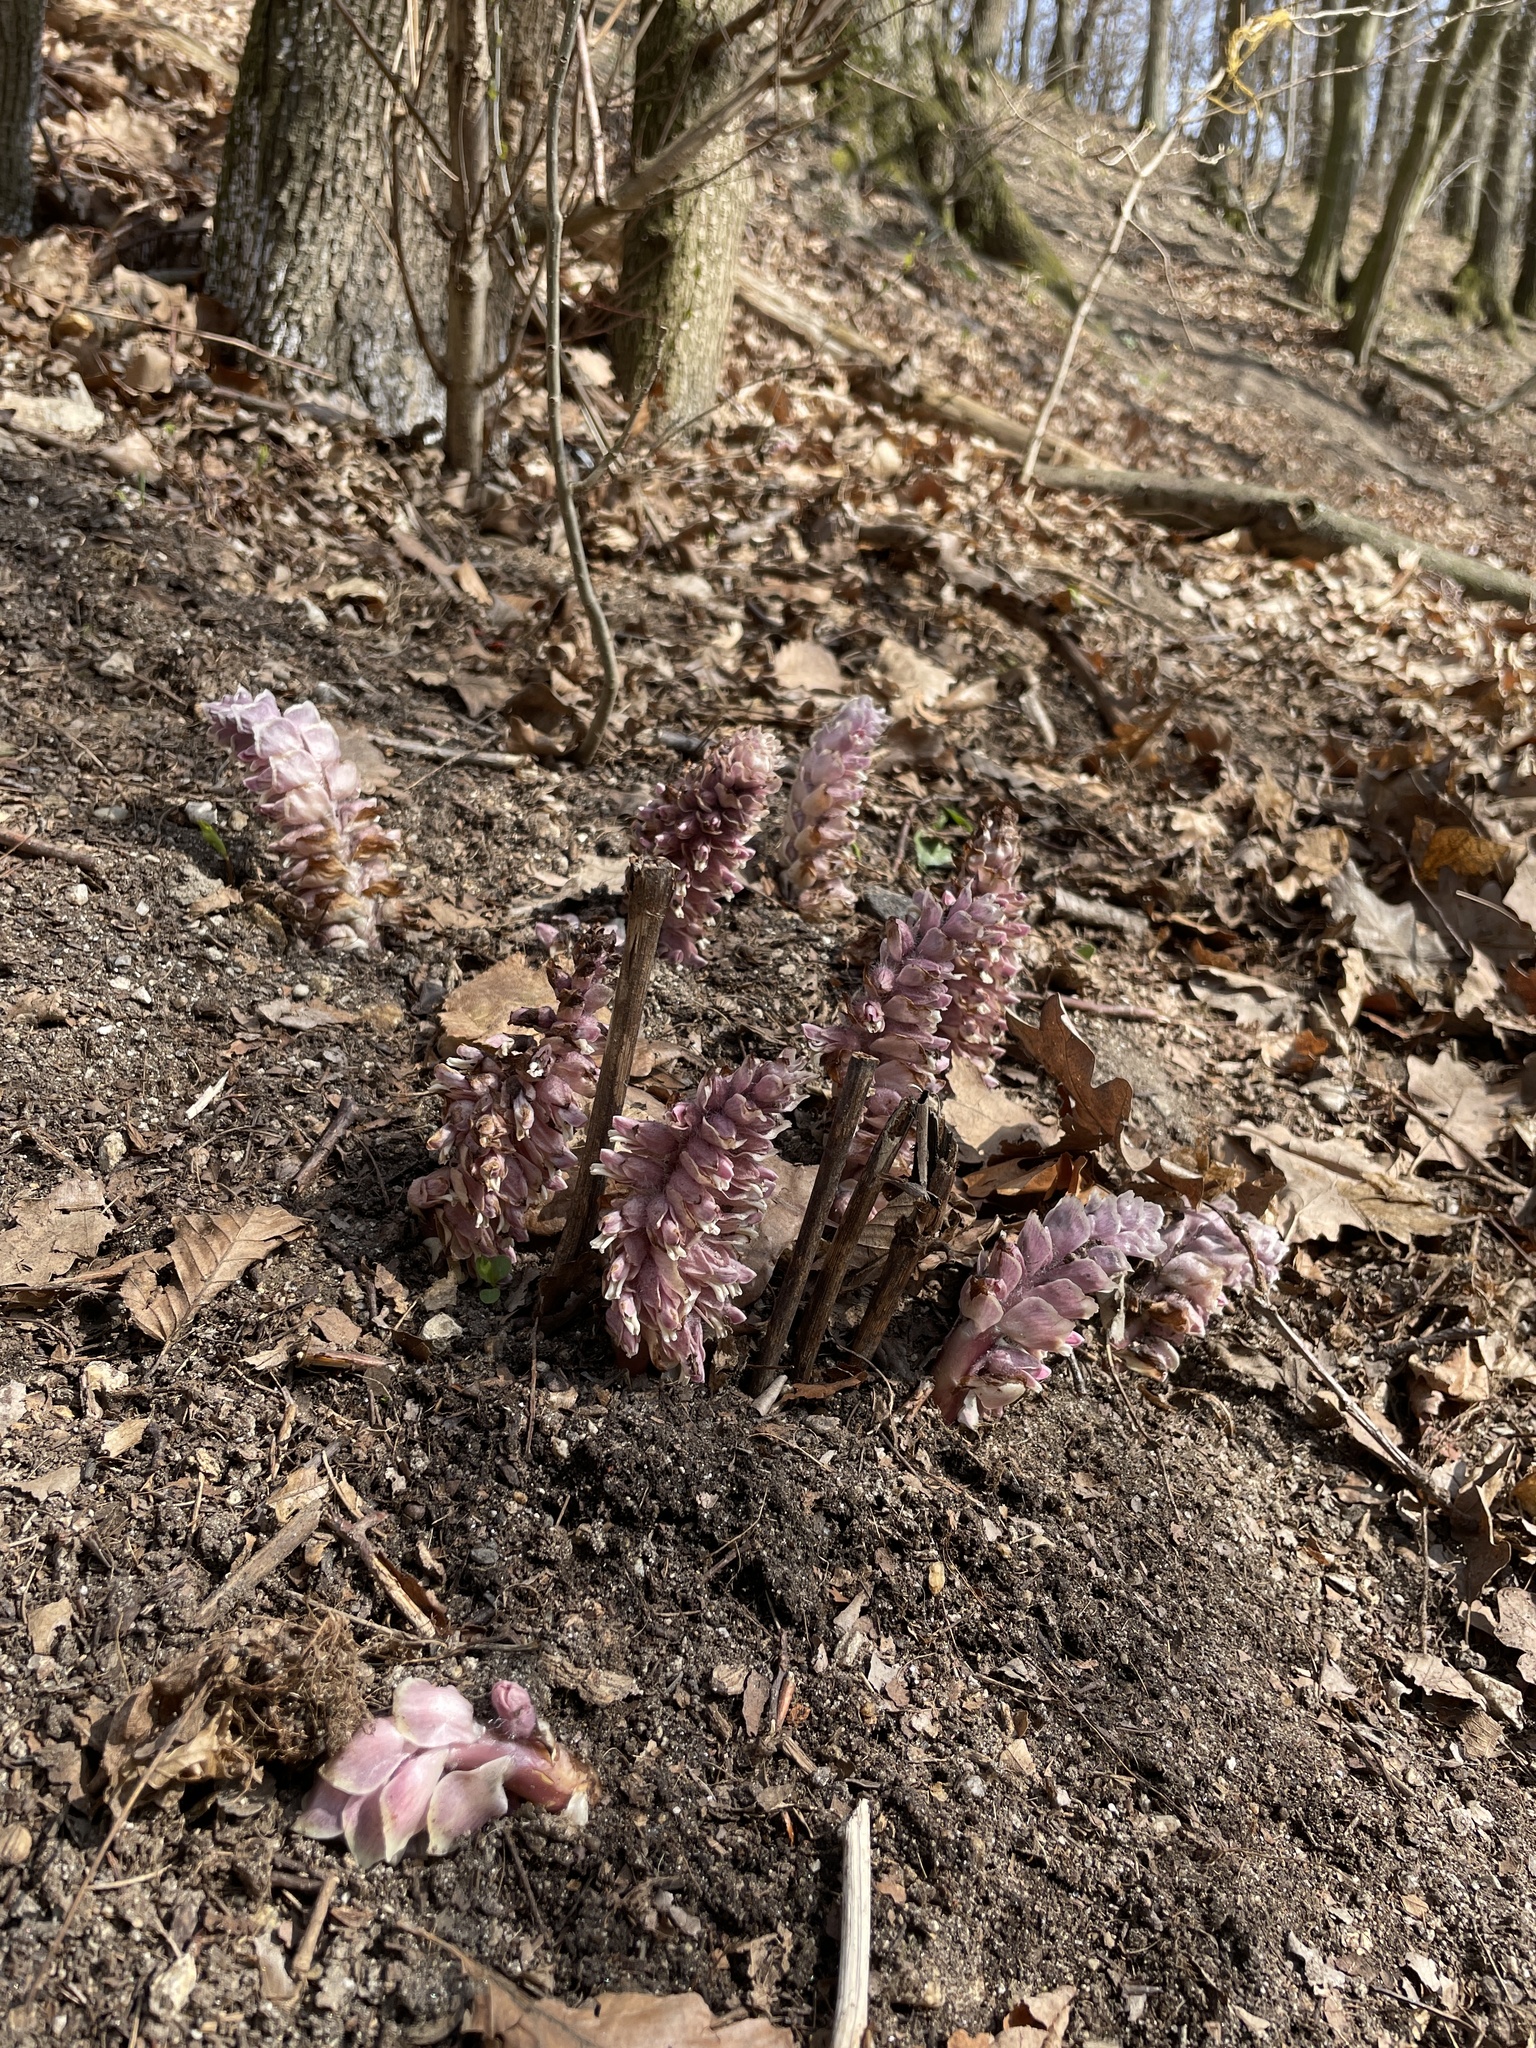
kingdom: Plantae
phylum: Tracheophyta
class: Magnoliopsida
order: Lamiales
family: Orobanchaceae
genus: Lathraea
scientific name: Lathraea squamaria
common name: Toothwort
